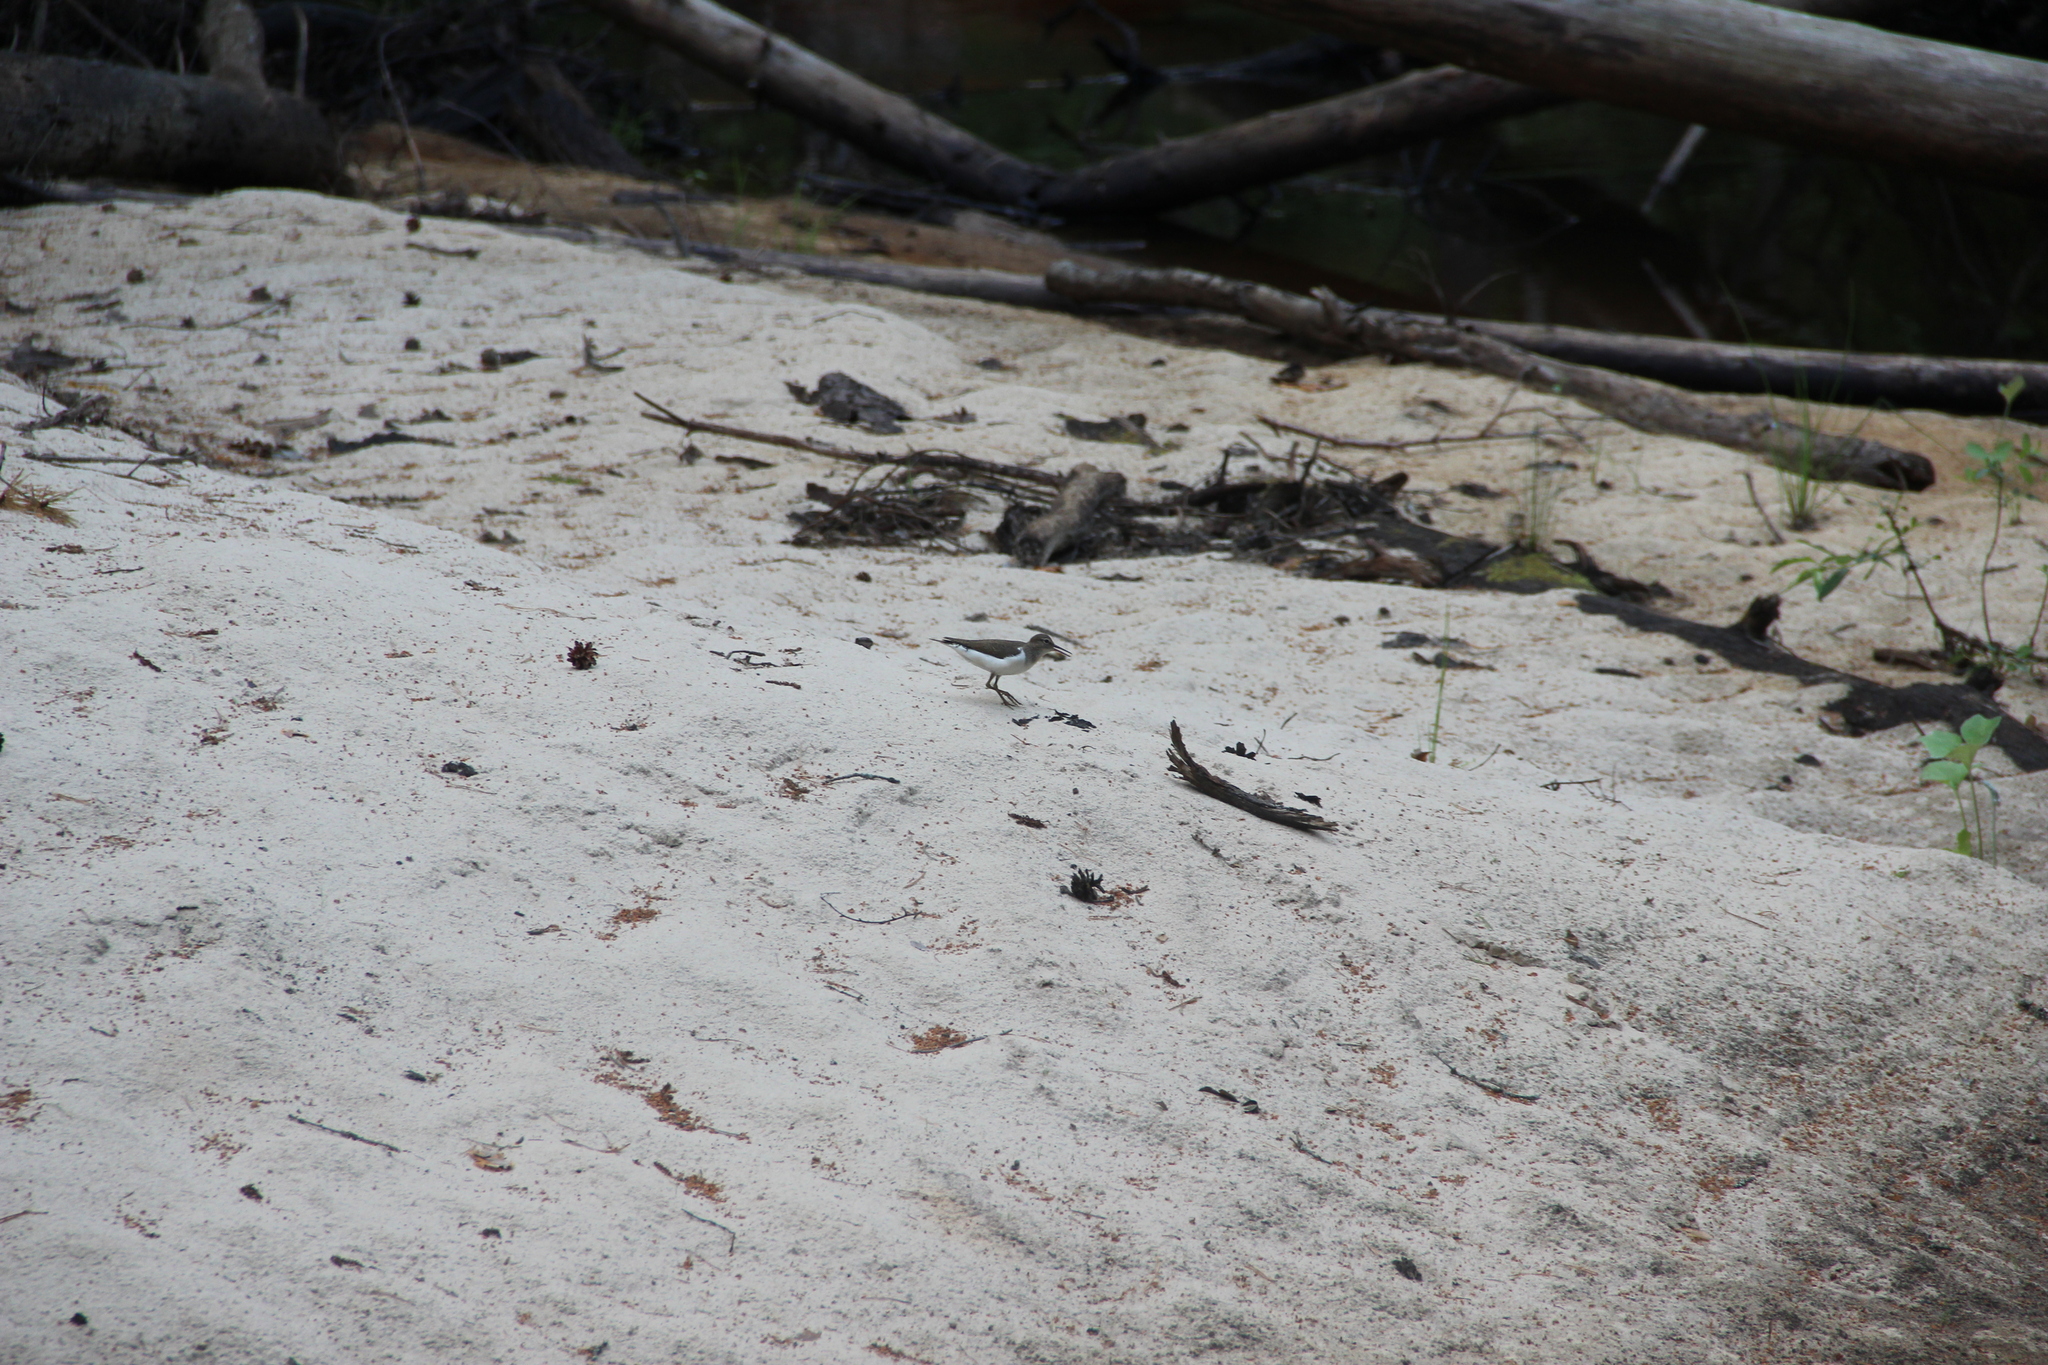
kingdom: Animalia
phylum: Chordata
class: Aves
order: Charadriiformes
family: Scolopacidae
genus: Actitis
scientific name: Actitis hypoleucos
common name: Common sandpiper
